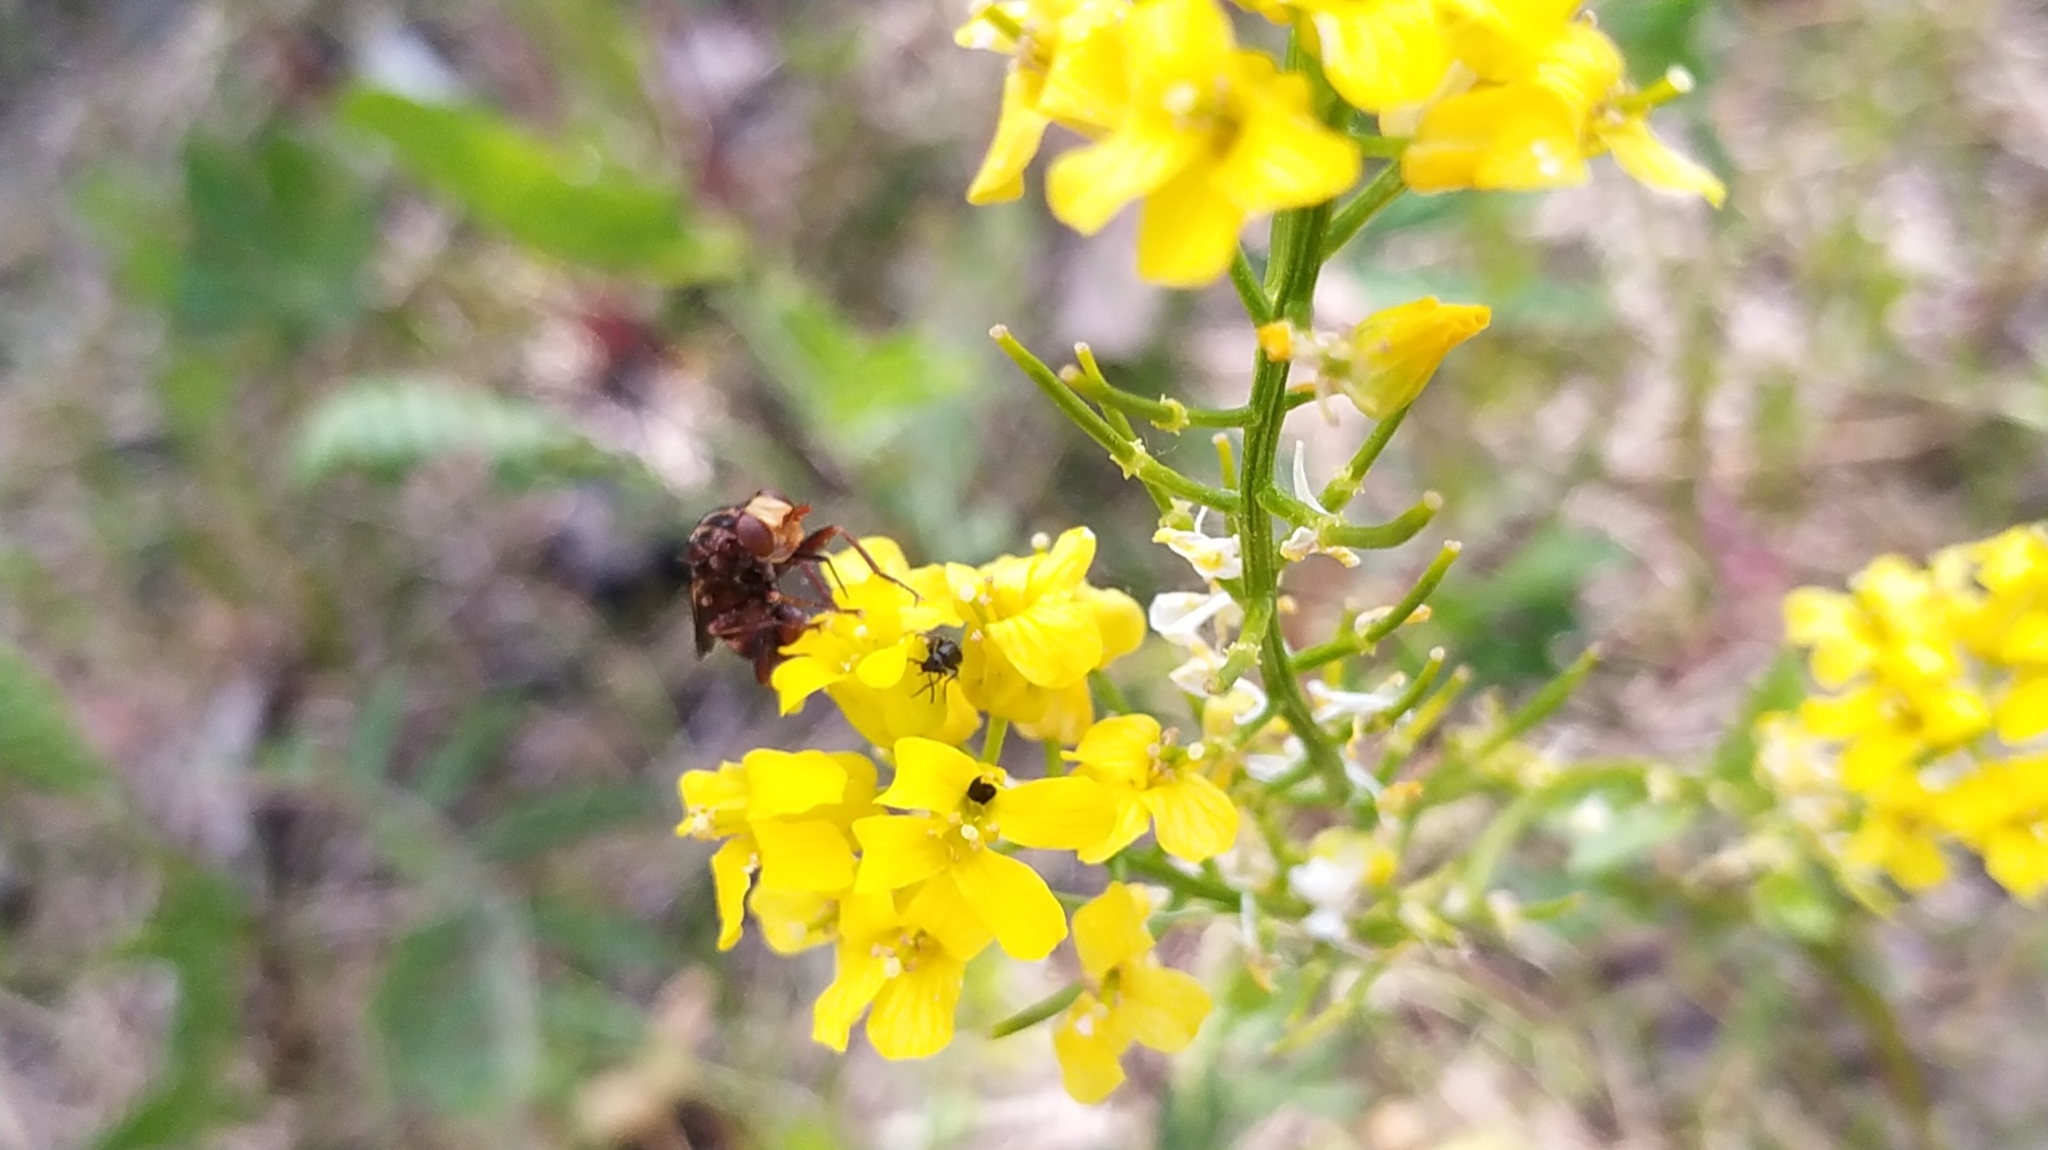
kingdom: Animalia
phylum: Arthropoda
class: Insecta
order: Diptera
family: Conopidae
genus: Sicus
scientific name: Sicus ferrugineus
